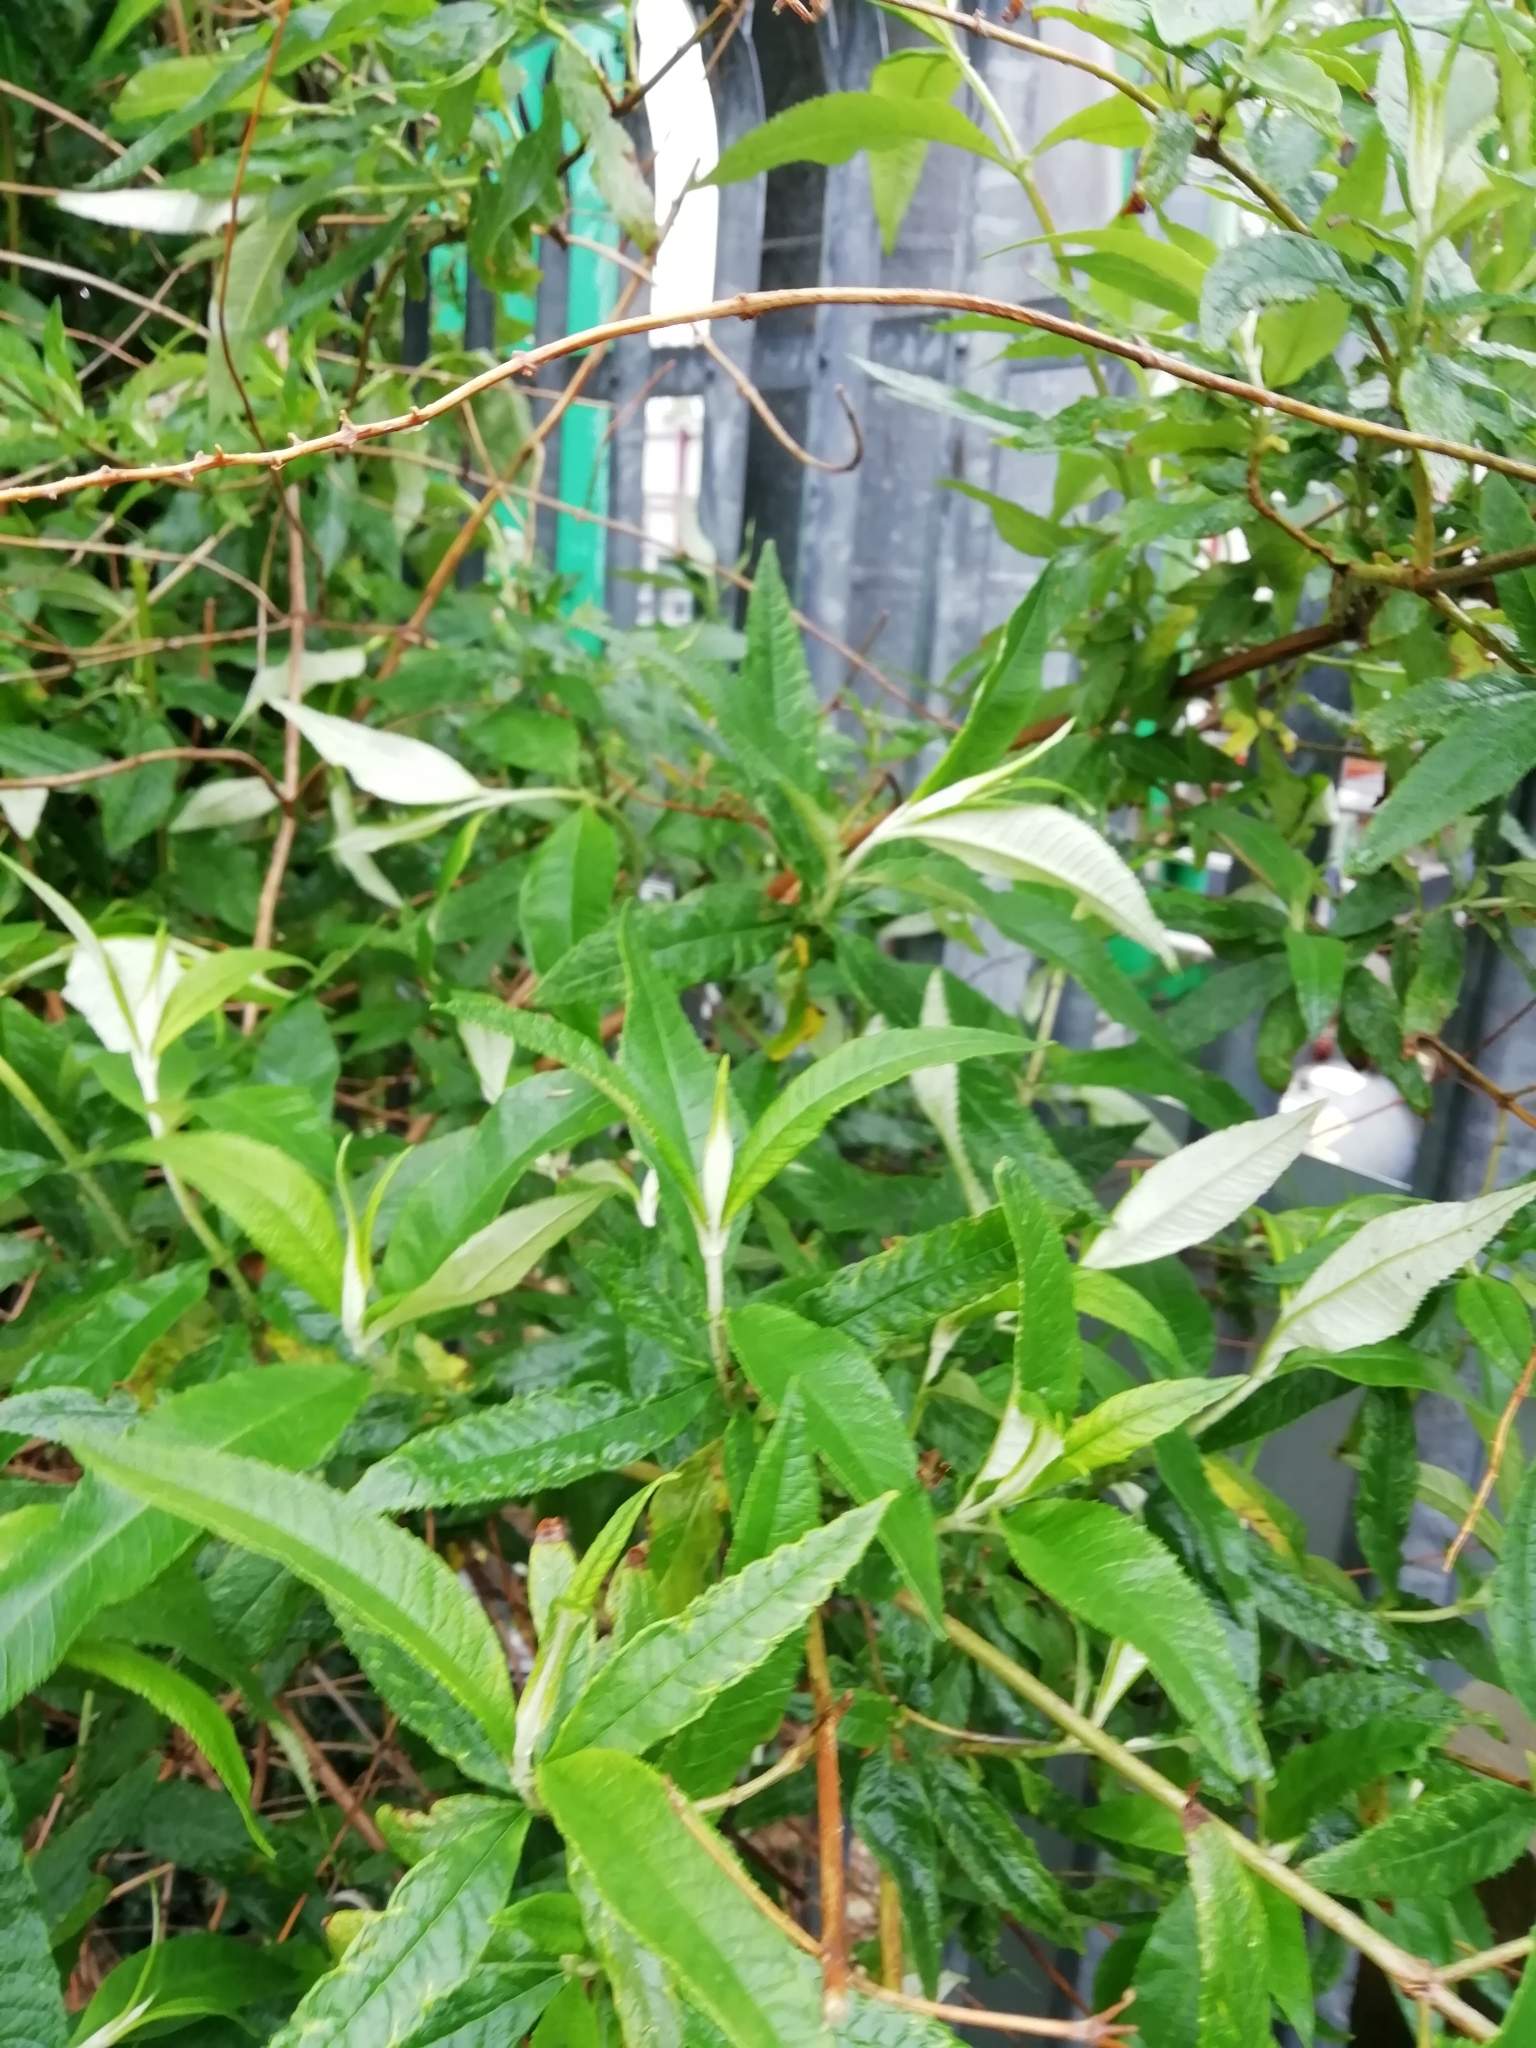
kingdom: Plantae
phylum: Tracheophyta
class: Magnoliopsida
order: Lamiales
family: Scrophulariaceae
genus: Buddleja
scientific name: Buddleja davidii
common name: Butterfly-bush
